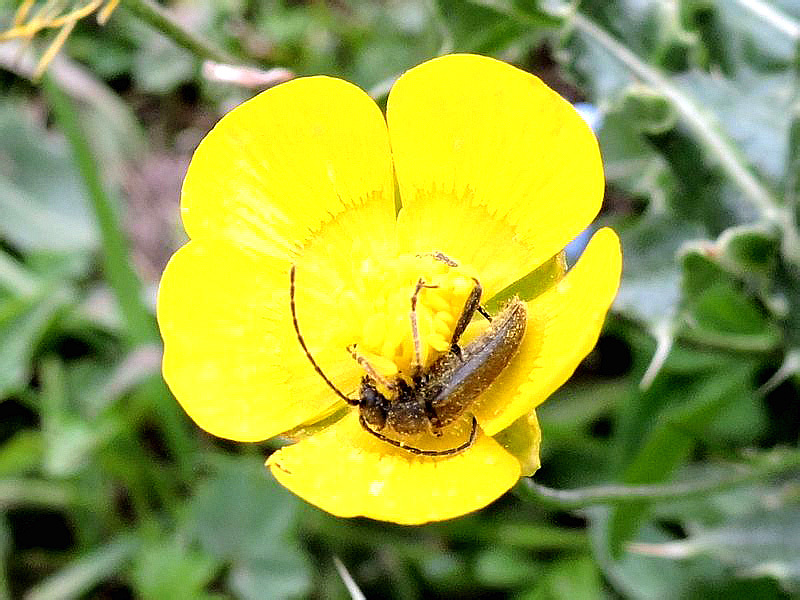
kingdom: Animalia
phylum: Arthropoda
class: Insecta
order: Coleoptera
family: Cerambycidae
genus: Cortodera
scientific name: Cortodera alpina
